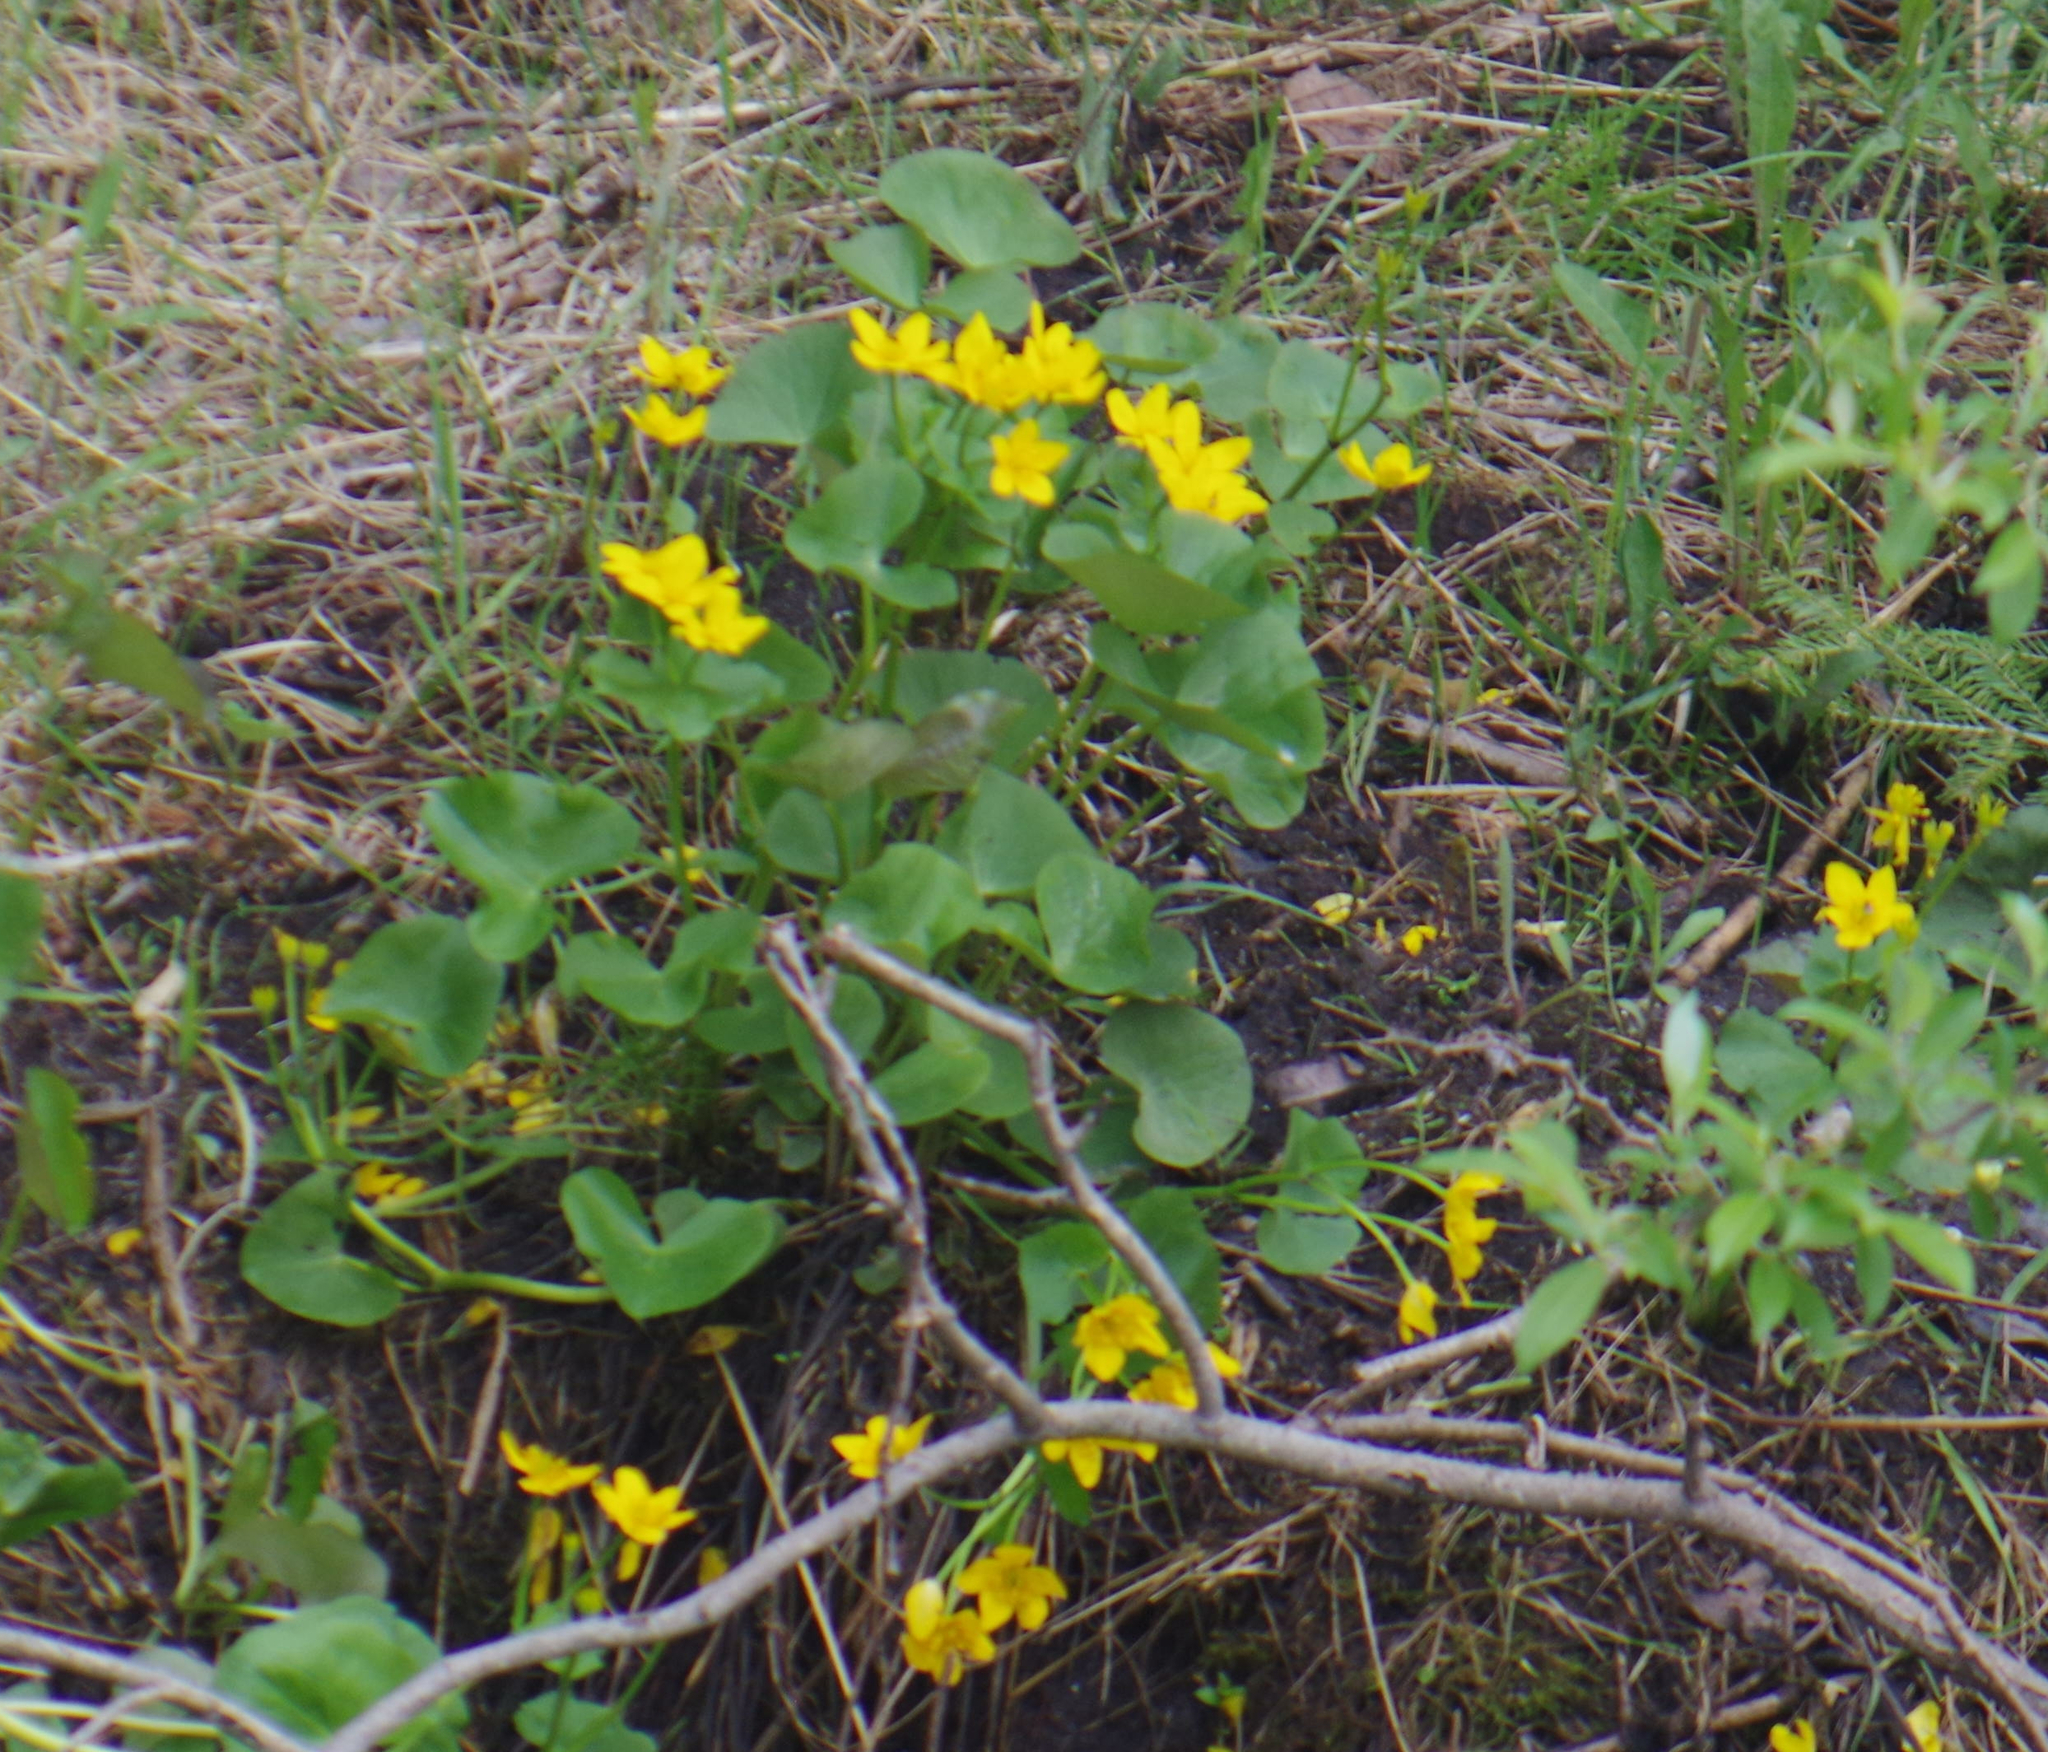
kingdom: Plantae
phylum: Tracheophyta
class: Magnoliopsida
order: Ranunculales
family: Ranunculaceae
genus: Caltha
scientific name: Caltha palustris
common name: Marsh marigold
